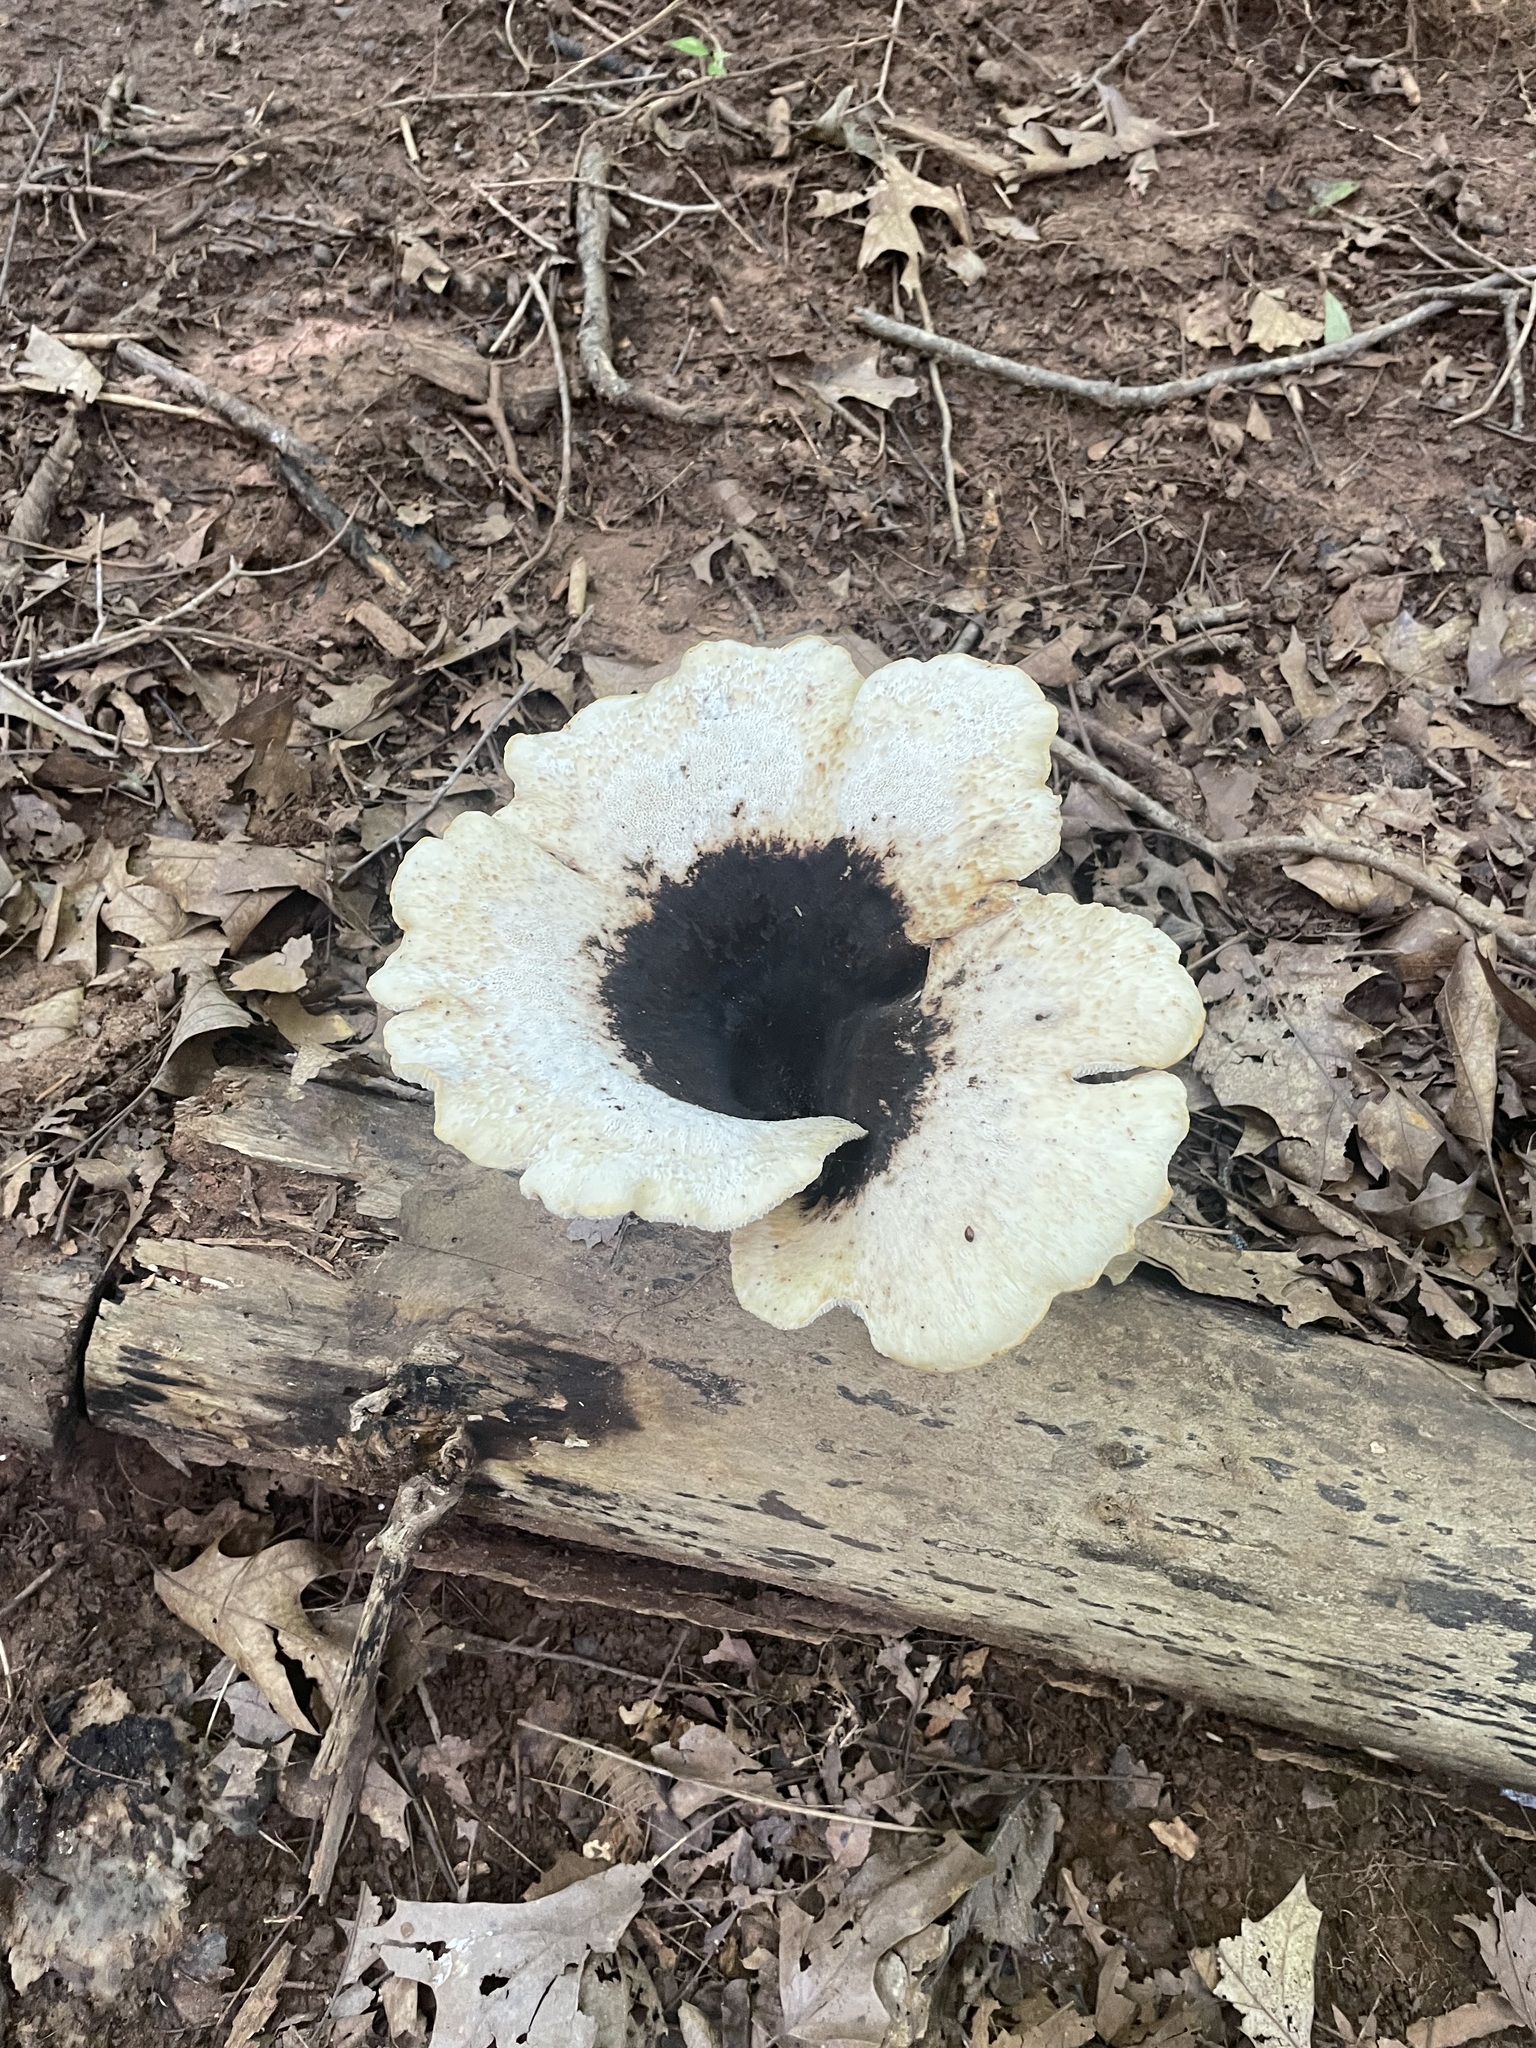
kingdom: Fungi
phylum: Basidiomycota
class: Agaricomycetes
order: Polyporales
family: Polyporaceae
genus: Cerioporus
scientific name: Cerioporus squamosus
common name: Dryad's saddle
